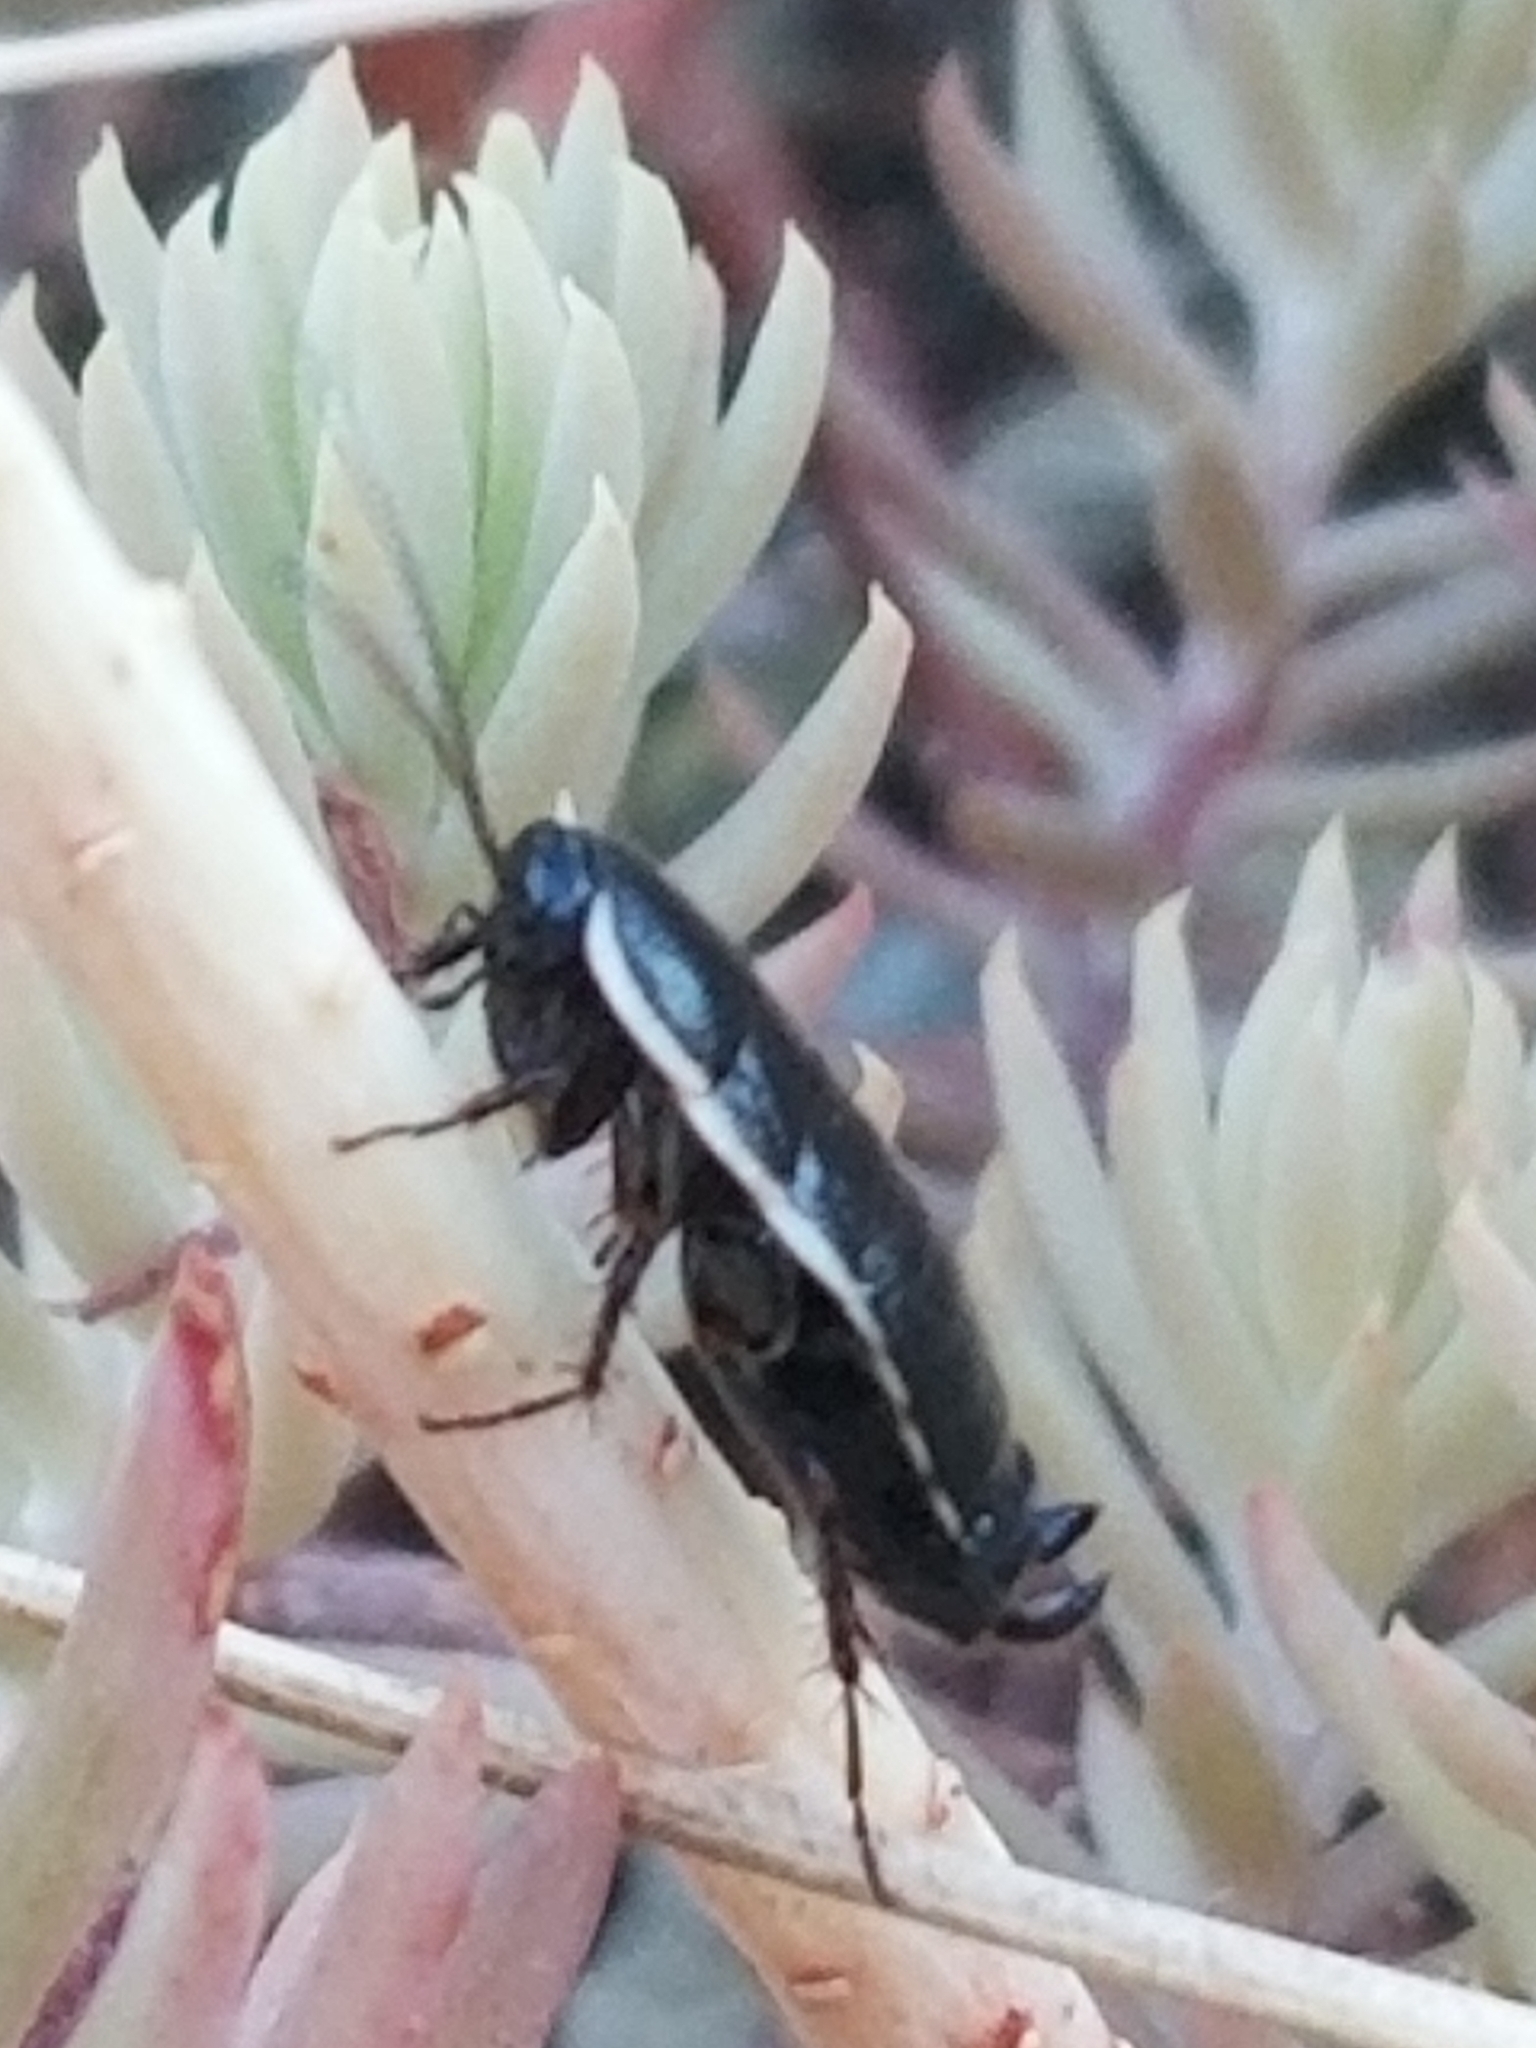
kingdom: Animalia
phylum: Arthropoda
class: Insecta
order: Blattodea
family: Blattidae
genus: Blatta
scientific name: Blatta orientalis
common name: Oriental cockroach
